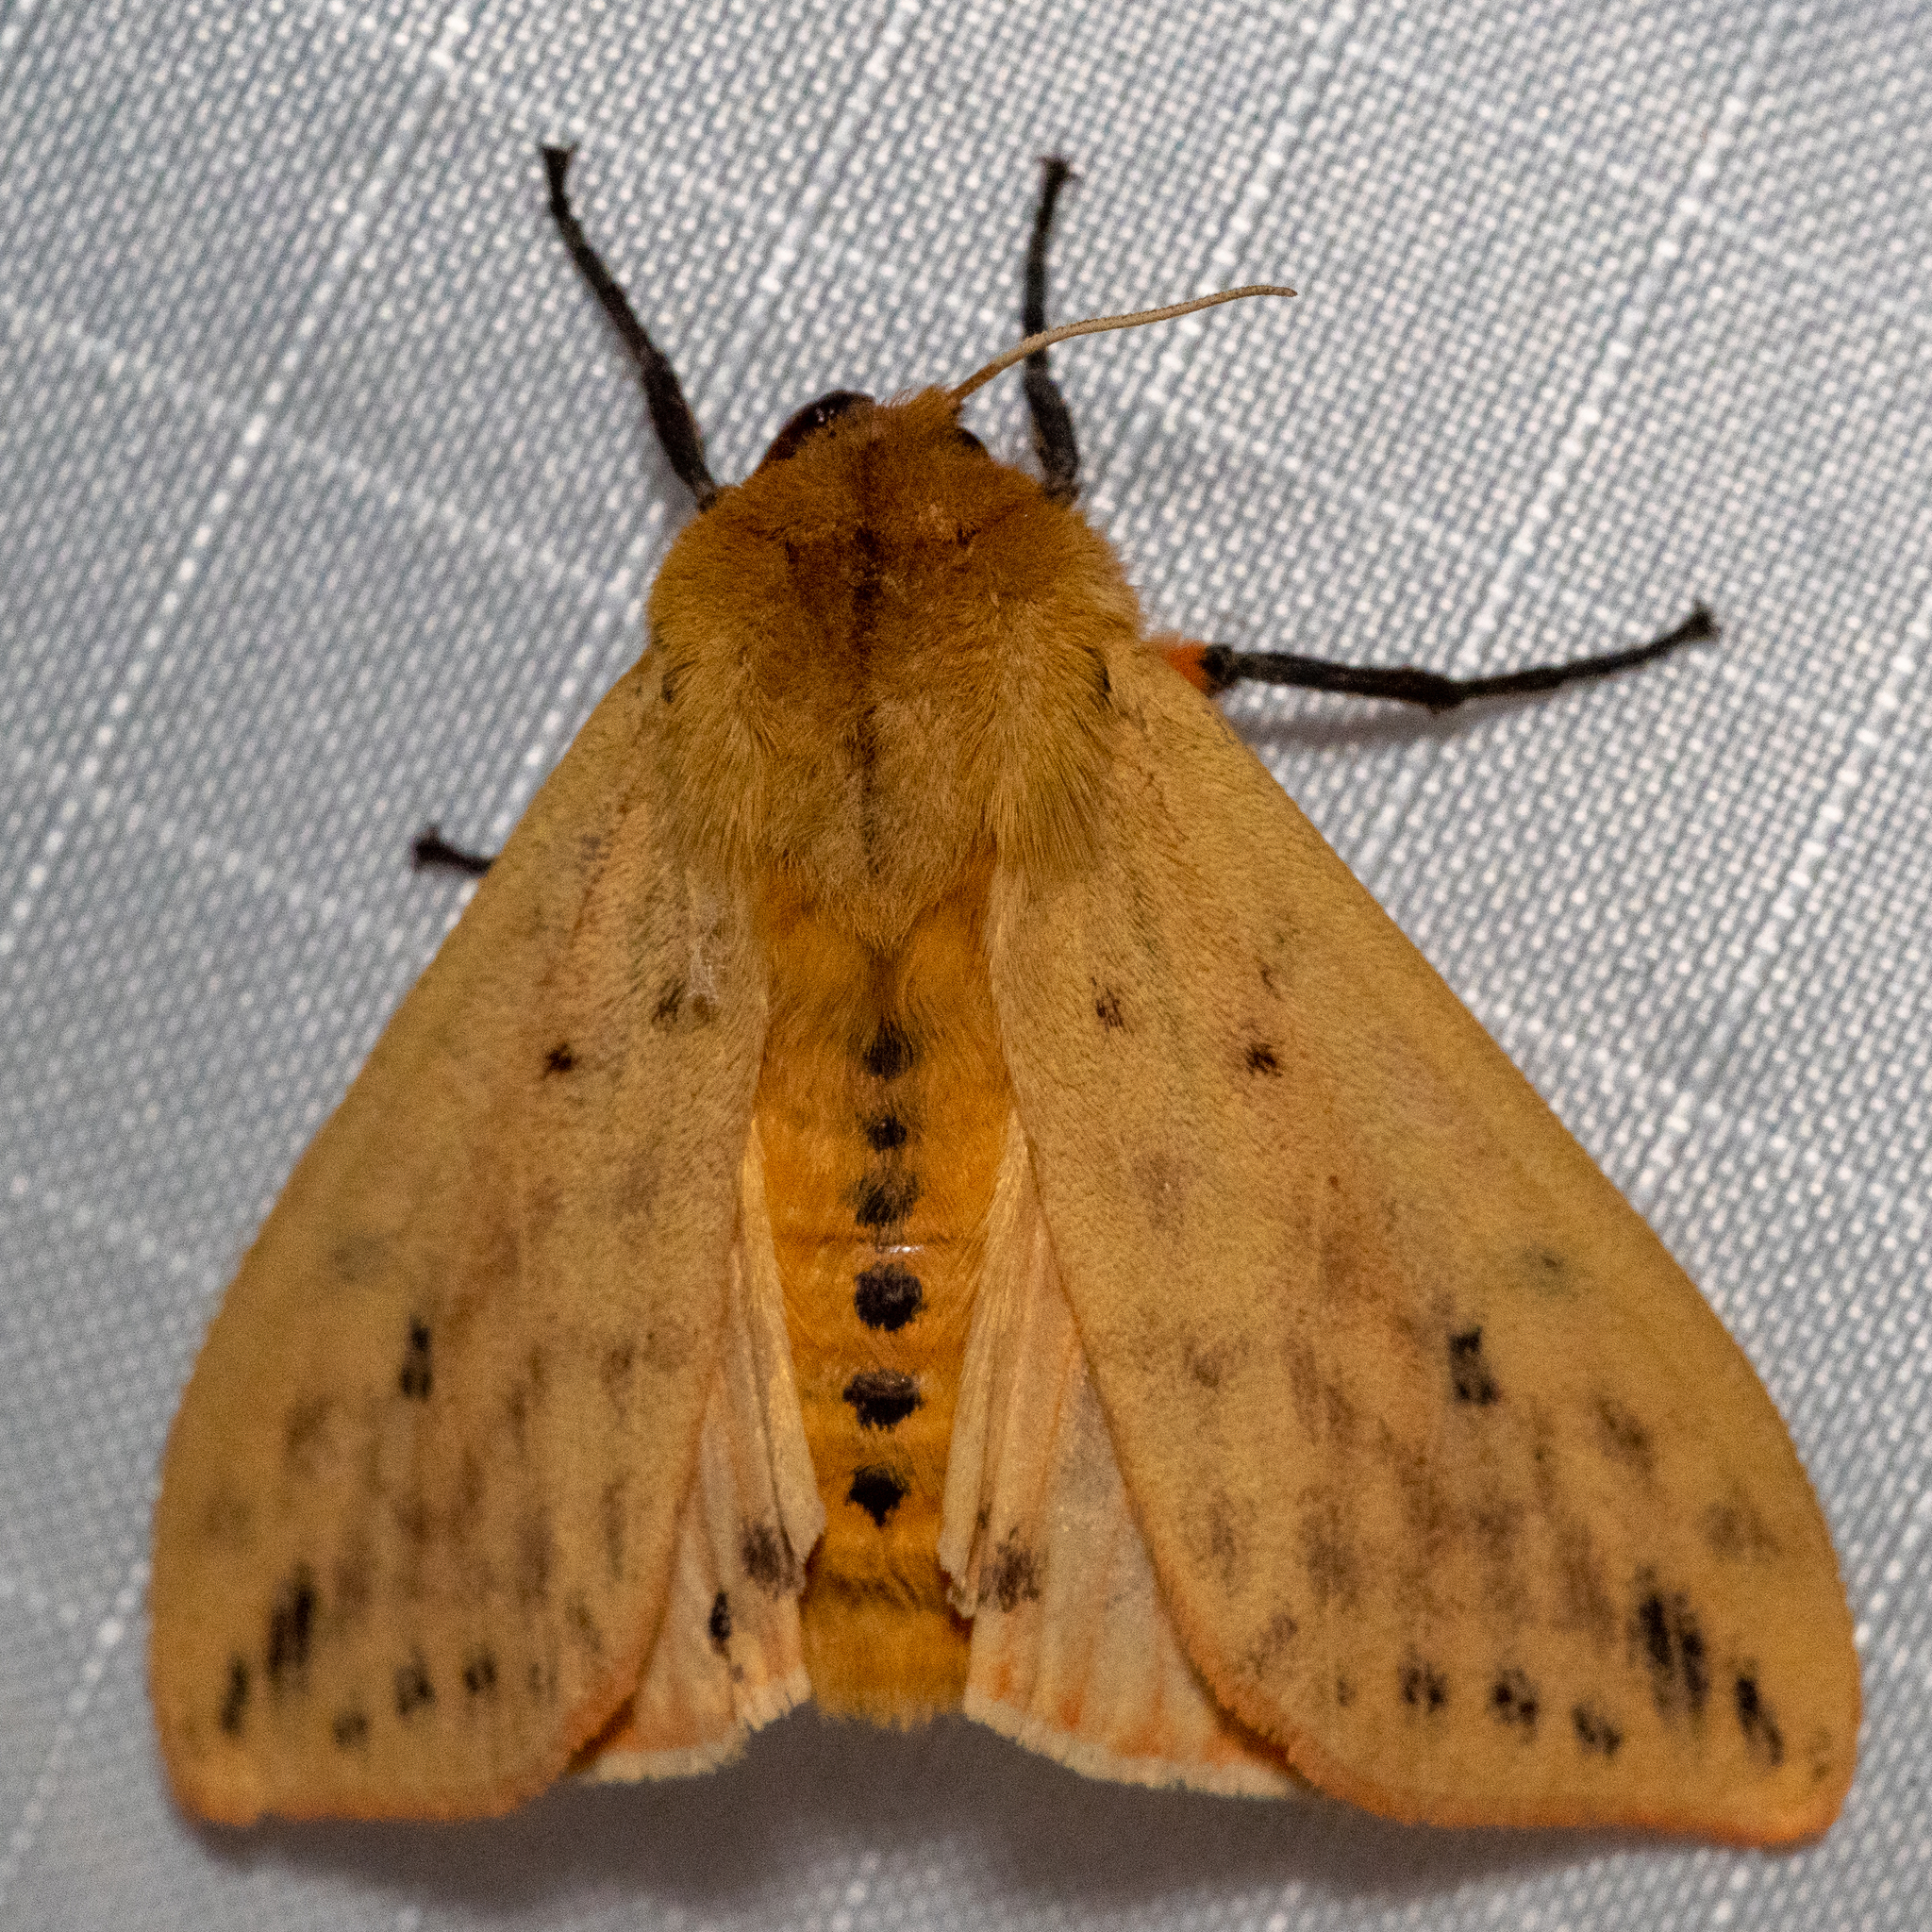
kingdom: Animalia
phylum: Arthropoda
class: Insecta
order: Lepidoptera
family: Erebidae
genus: Pyrrharctia
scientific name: Pyrrharctia isabella
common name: Isabella tiger moth
